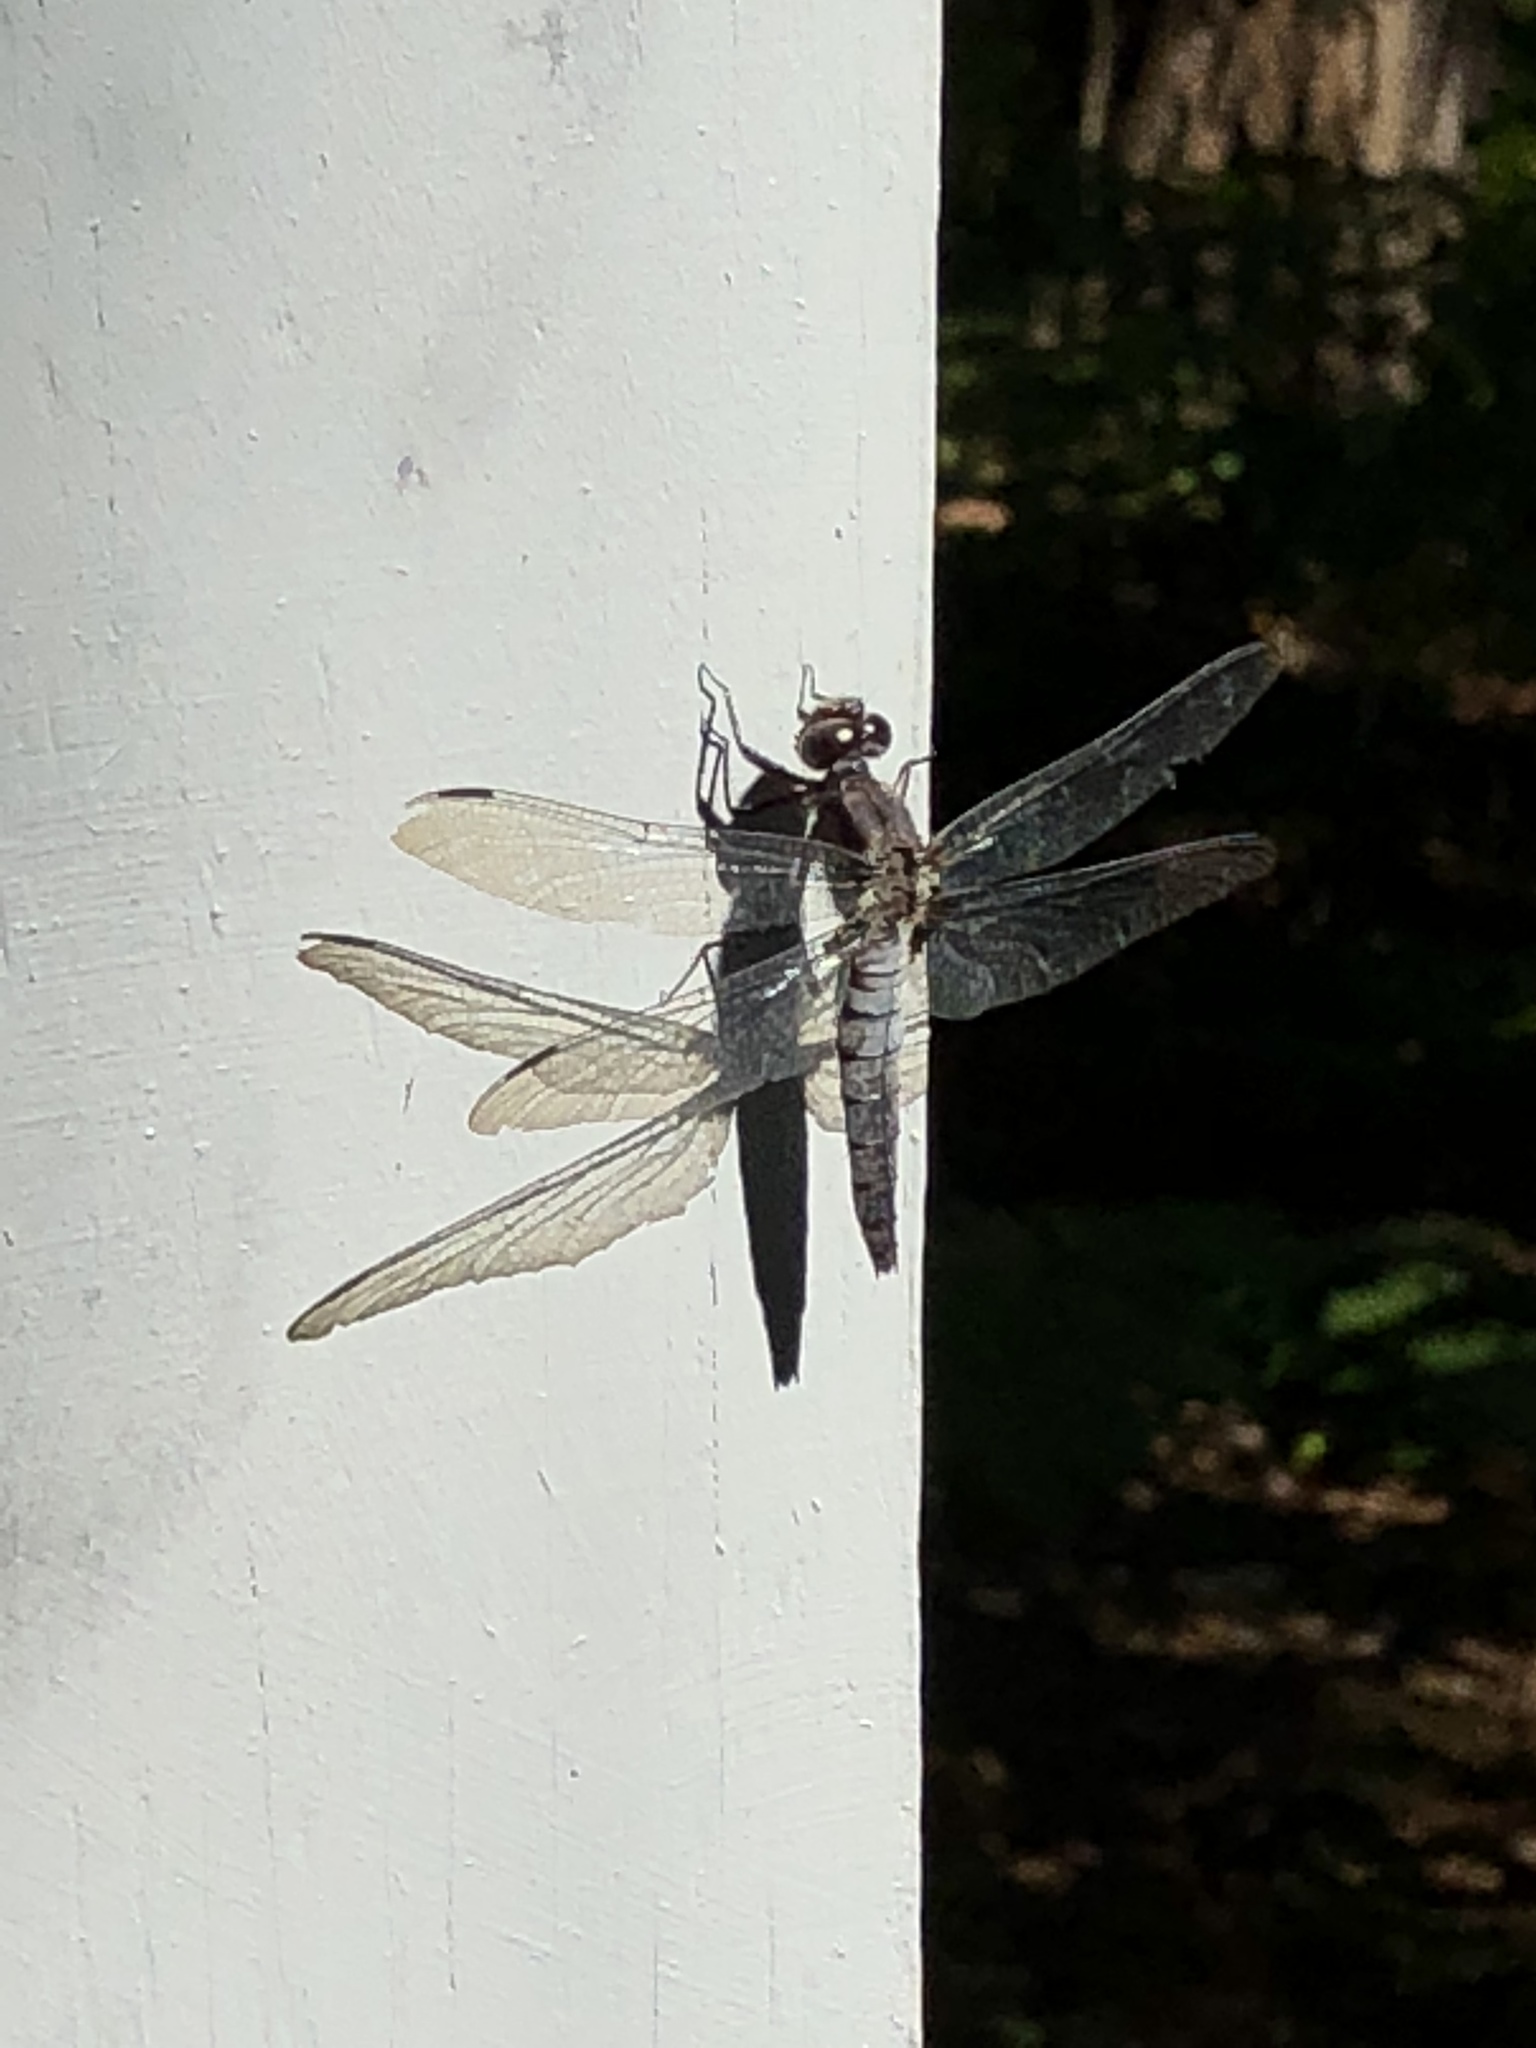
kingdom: Animalia
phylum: Arthropoda
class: Insecta
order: Odonata
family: Libellulidae
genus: Ladona
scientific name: Ladona julia
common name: Chalk-fronted corporal
